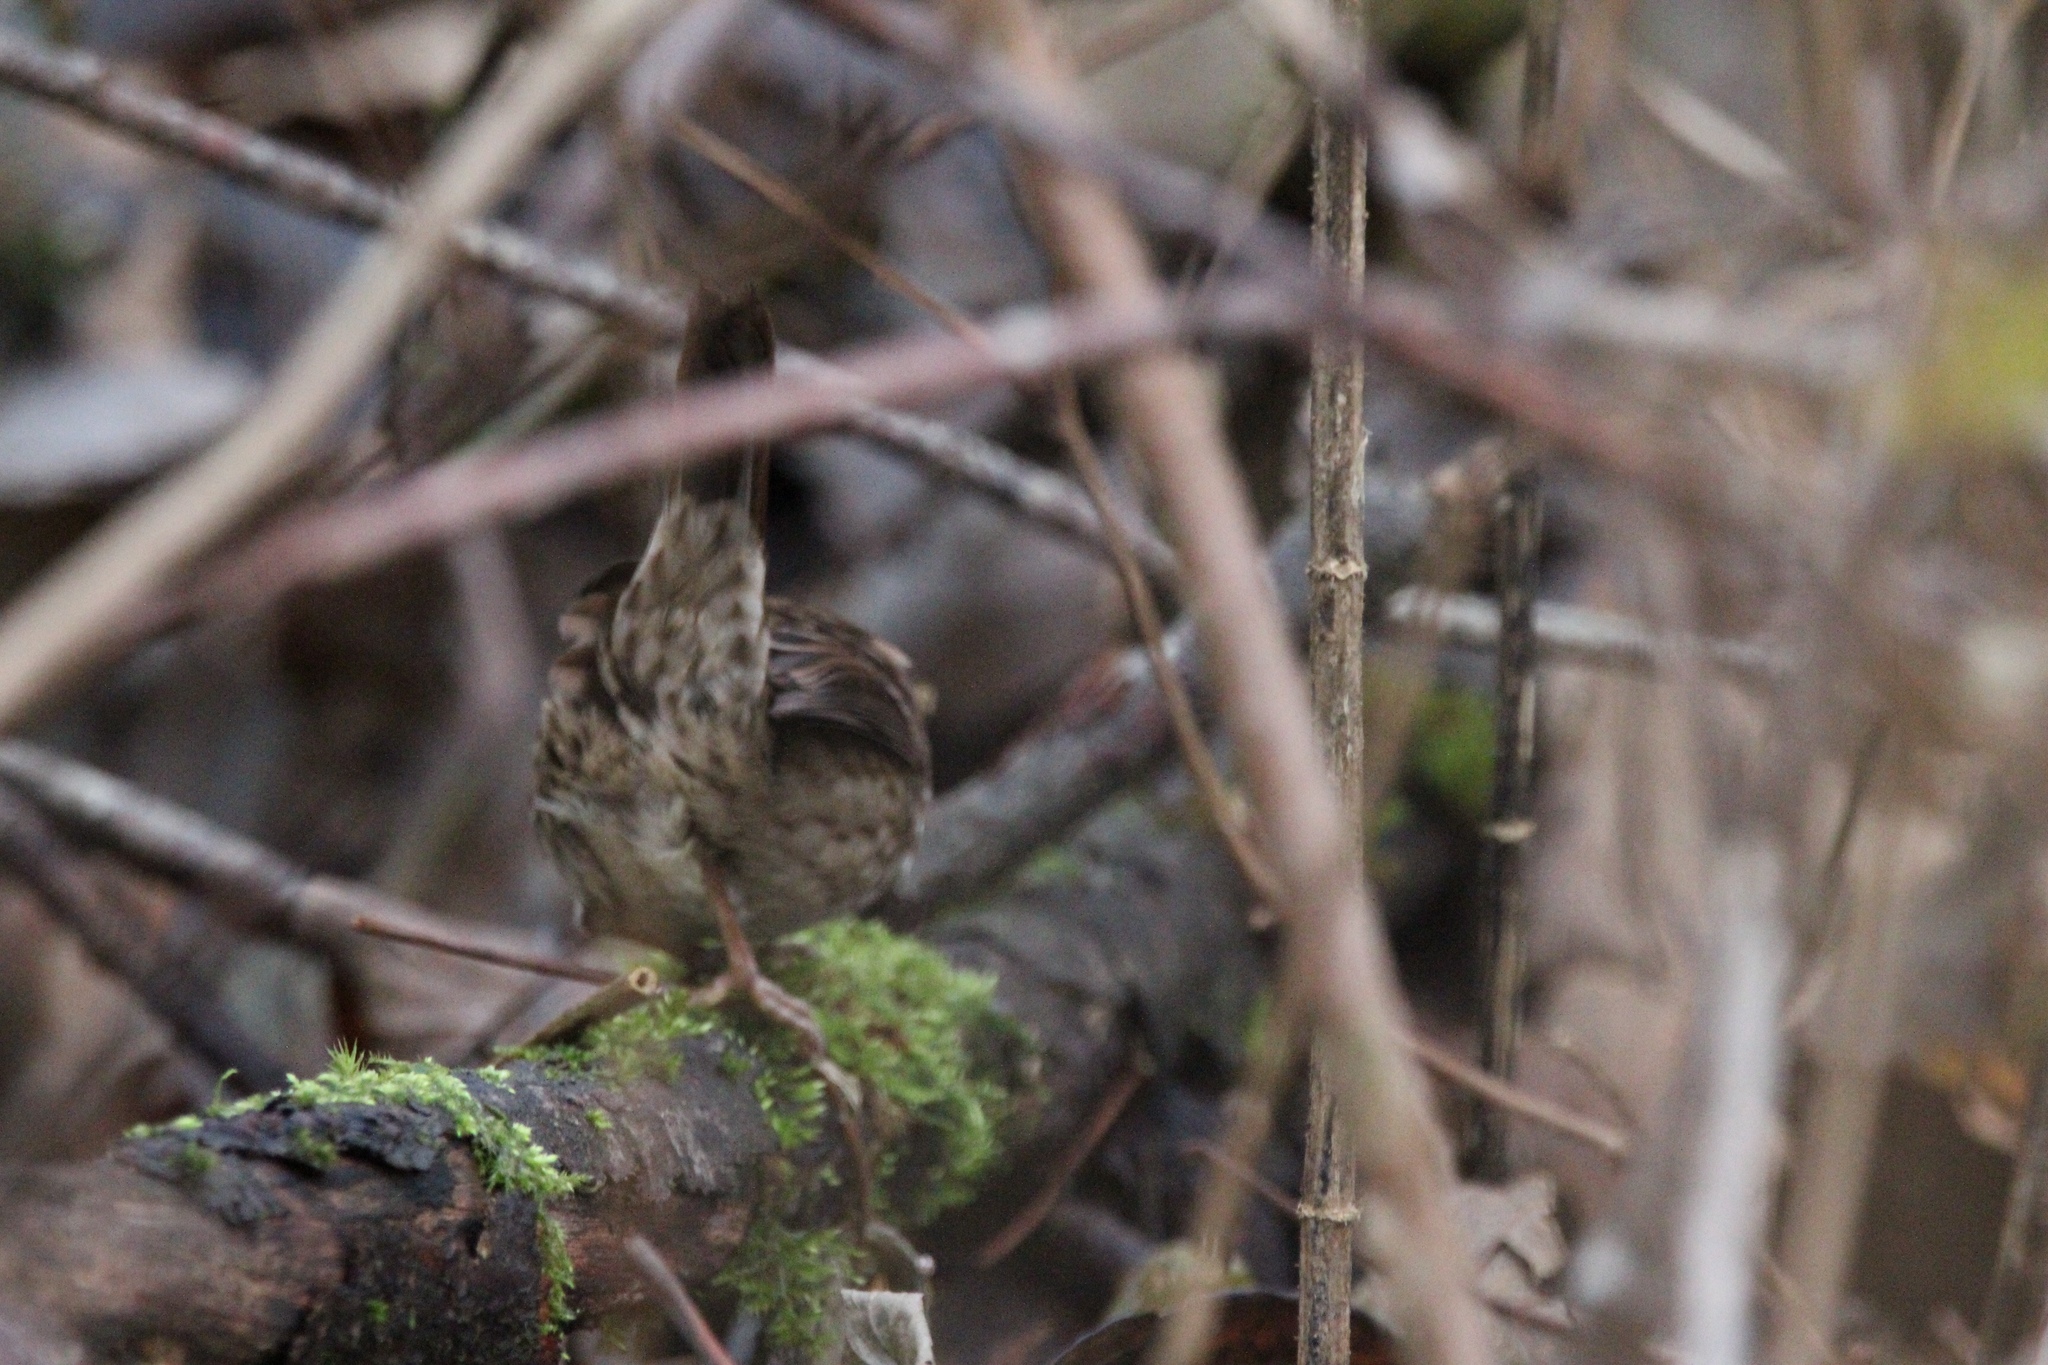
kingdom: Animalia
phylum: Chordata
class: Aves
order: Passeriformes
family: Passerellidae
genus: Melospiza
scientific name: Melospiza melodia
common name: Song sparrow
